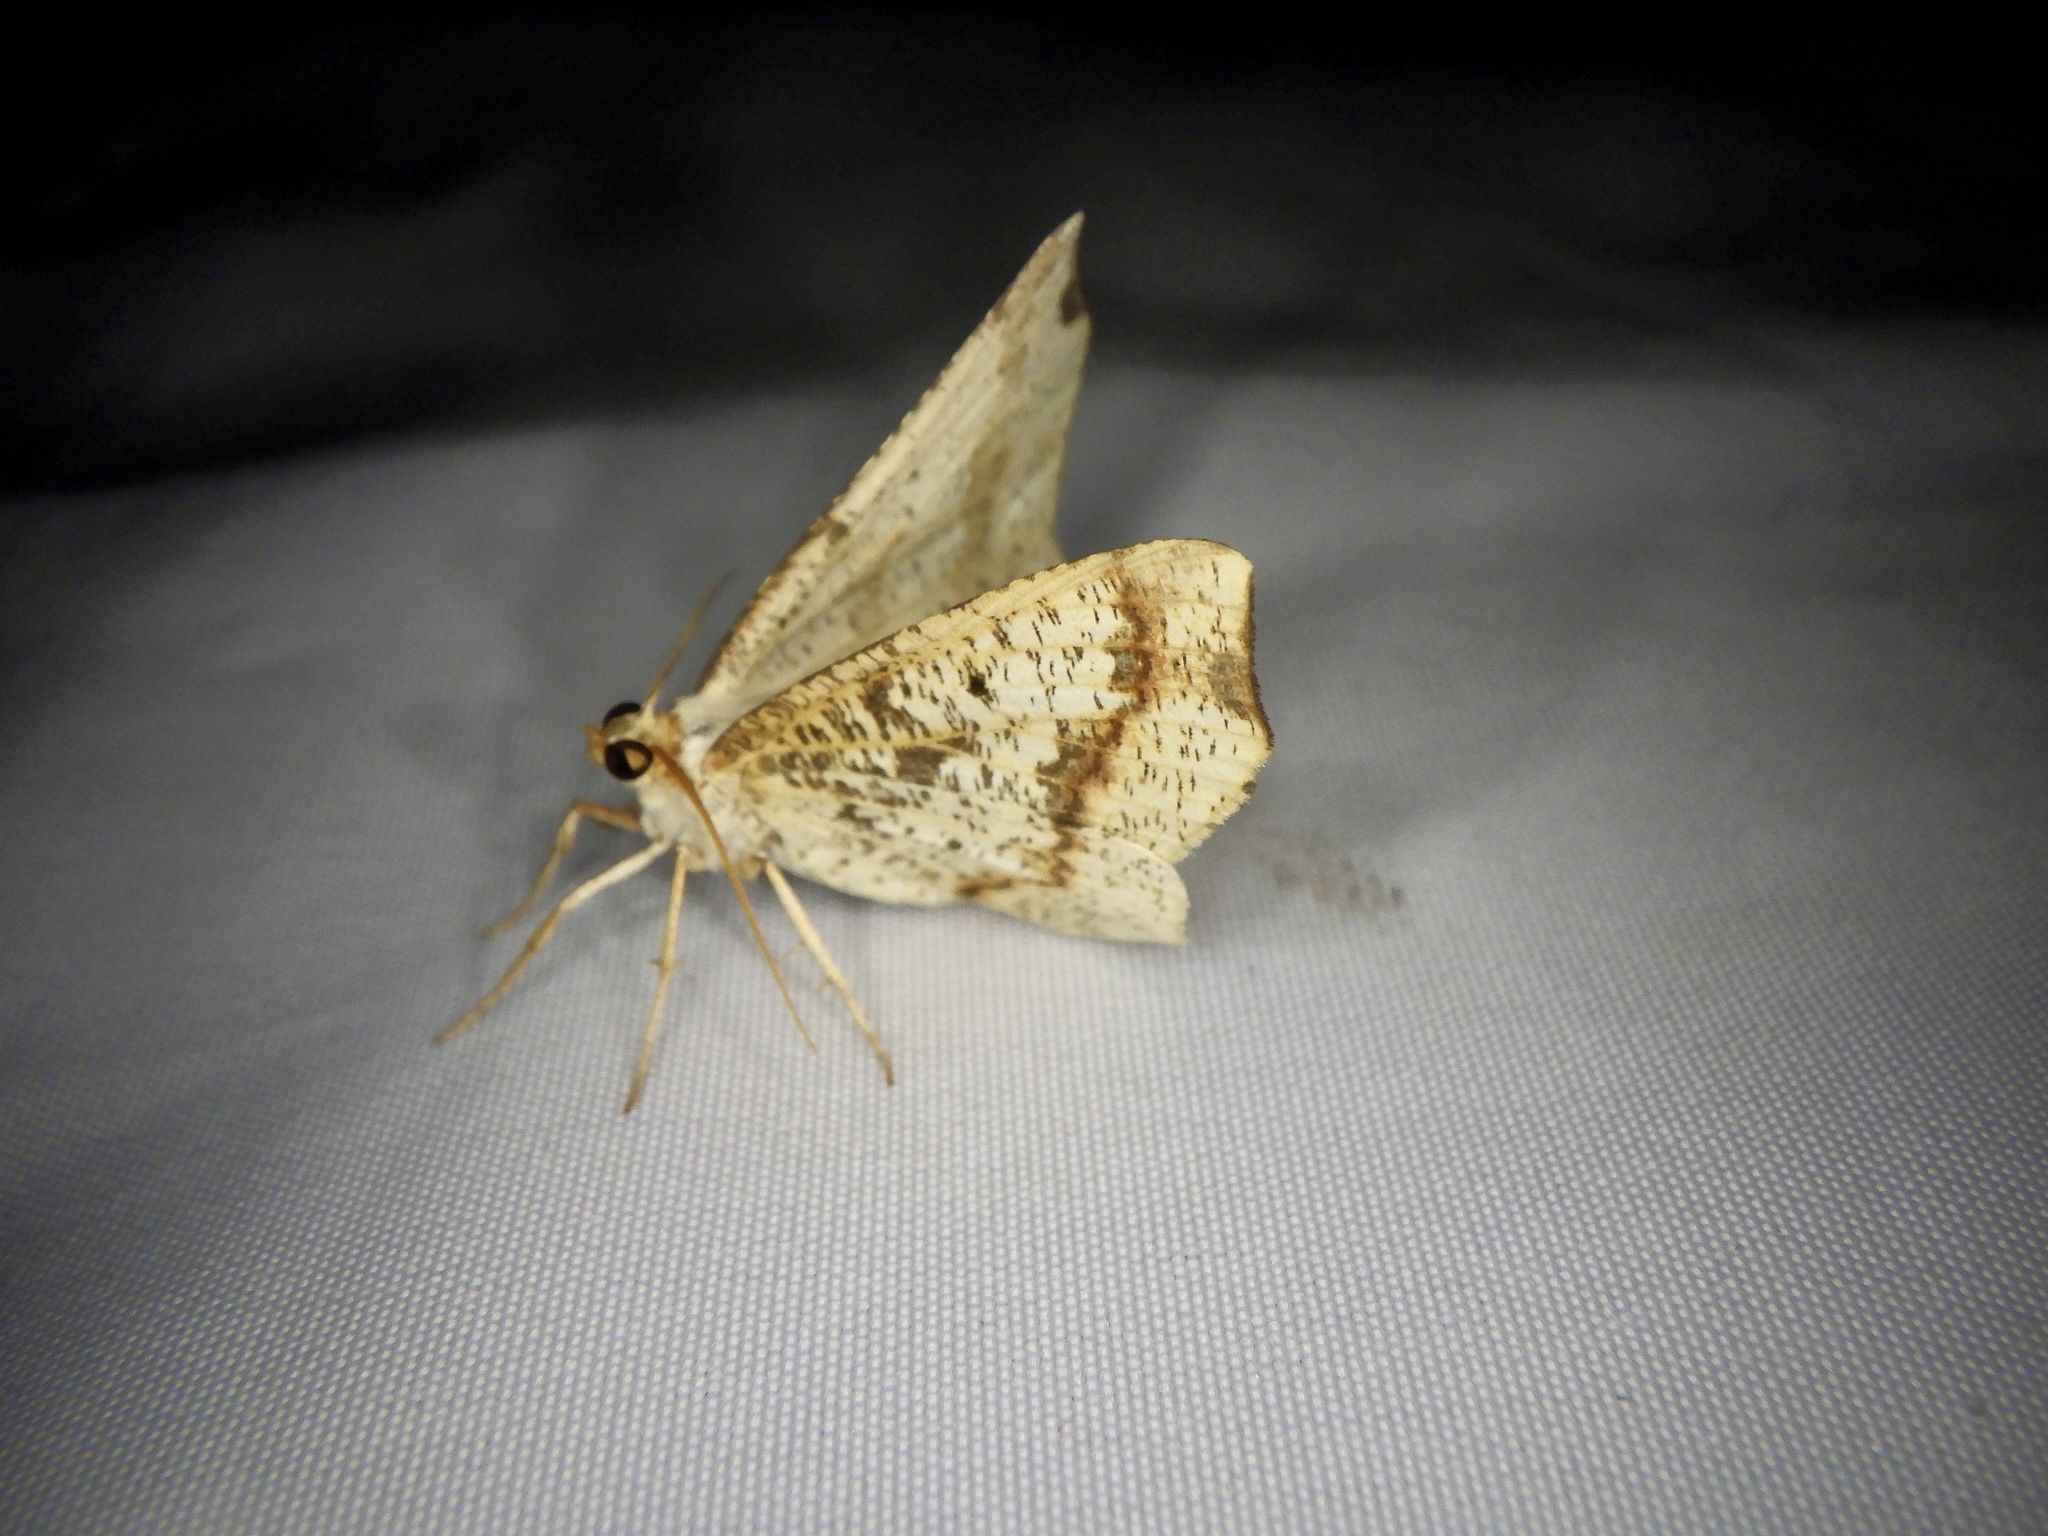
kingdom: Animalia
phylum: Arthropoda
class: Insecta
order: Lepidoptera
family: Geometridae
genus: Pareclipsis
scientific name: Pareclipsis gracilis
